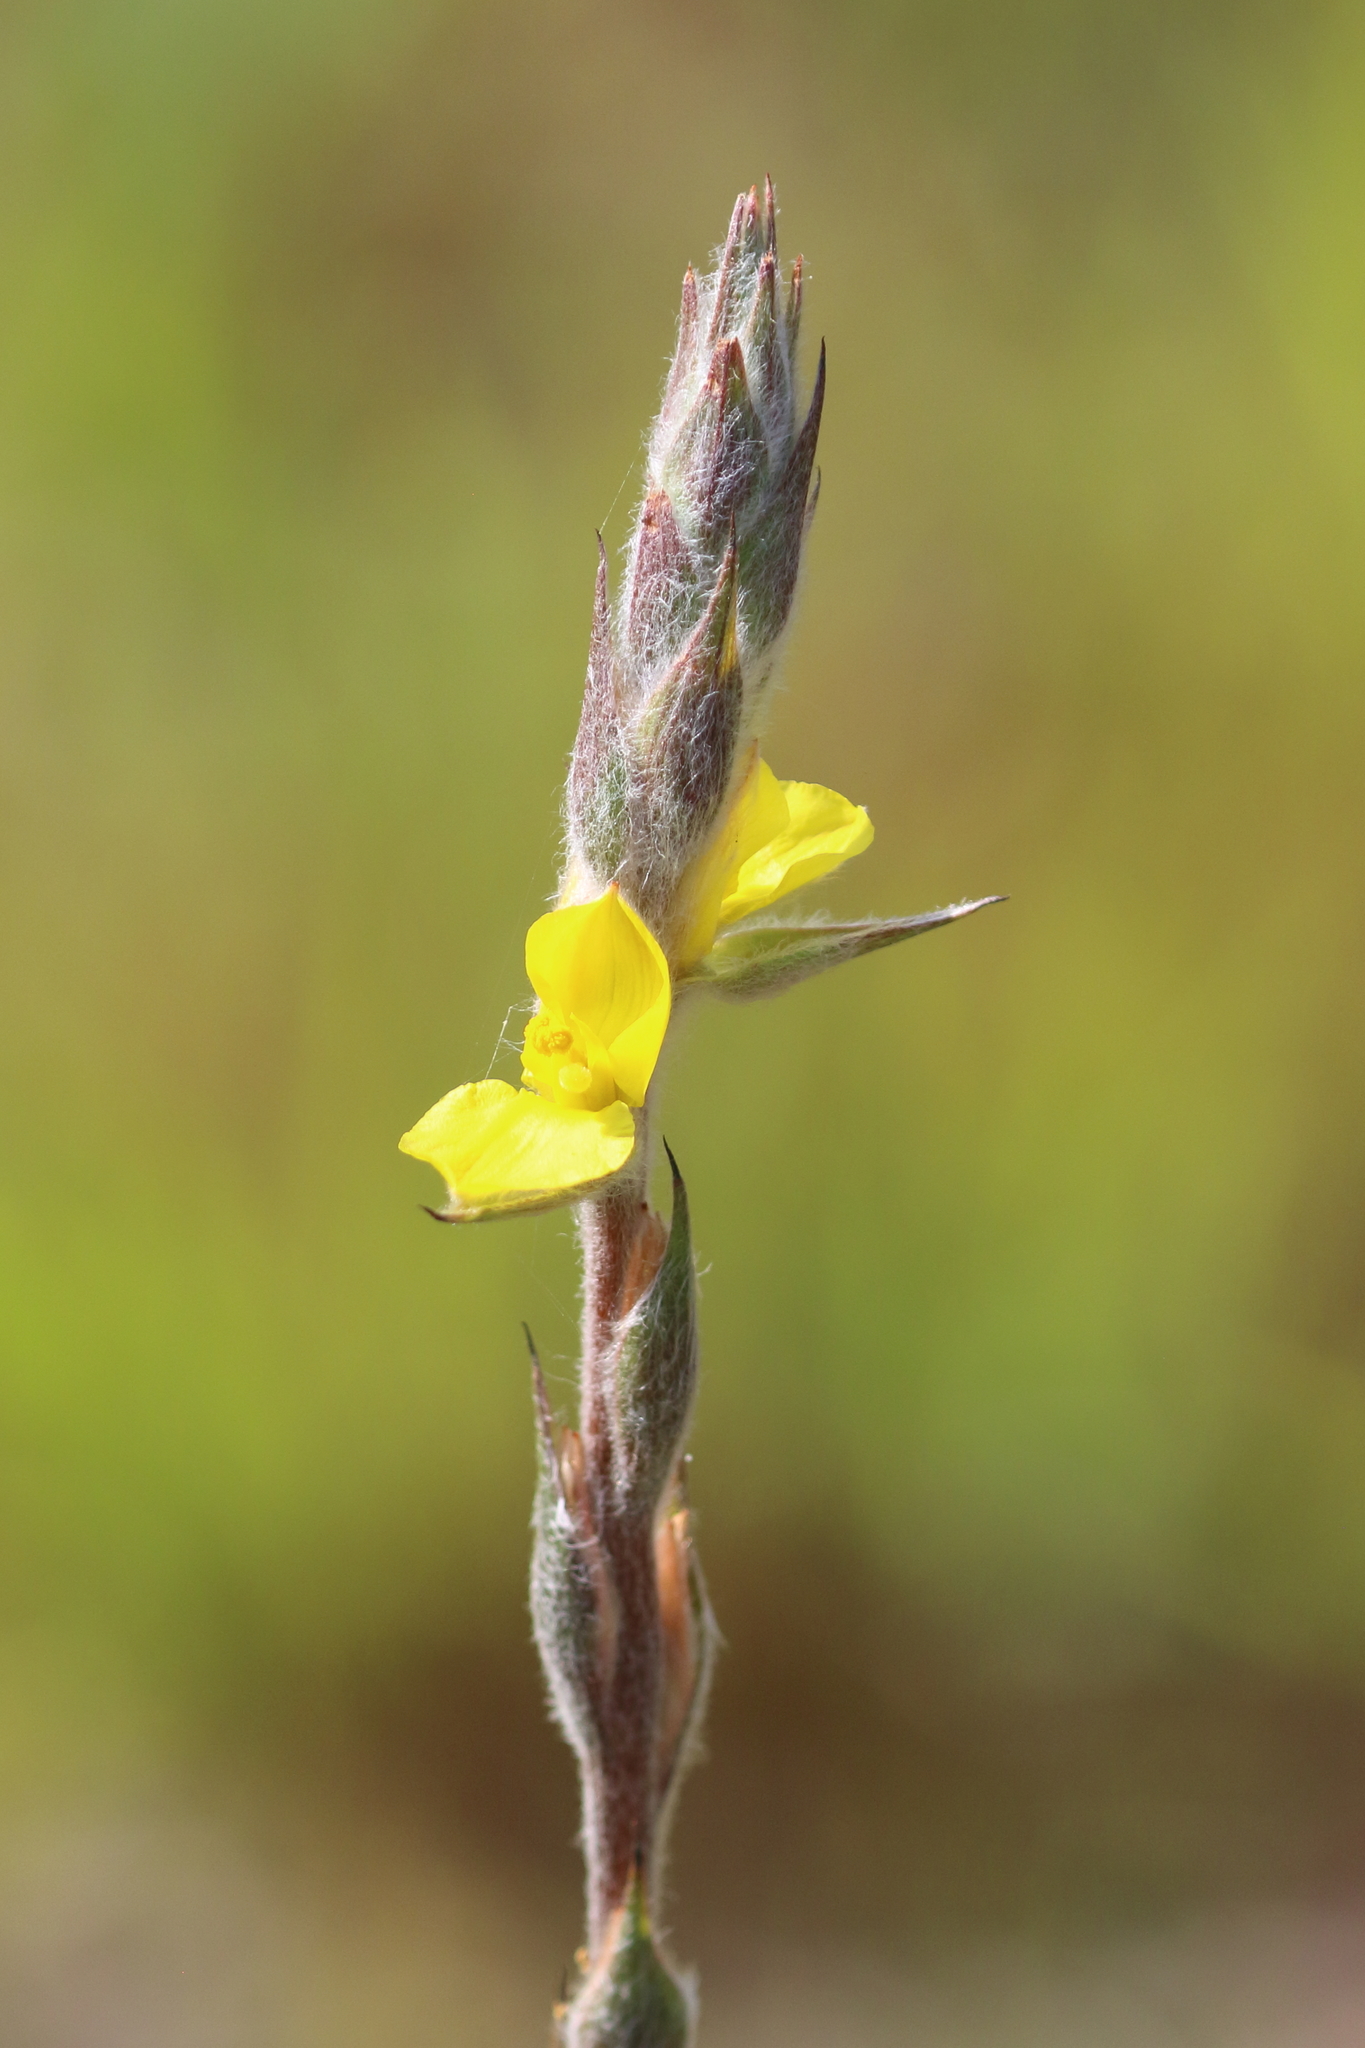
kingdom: Plantae
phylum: Tracheophyta
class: Liliopsida
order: Commelinales
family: Philydraceae
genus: Philydrum
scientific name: Philydrum lanuginosum
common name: Woolly frog's mouth
